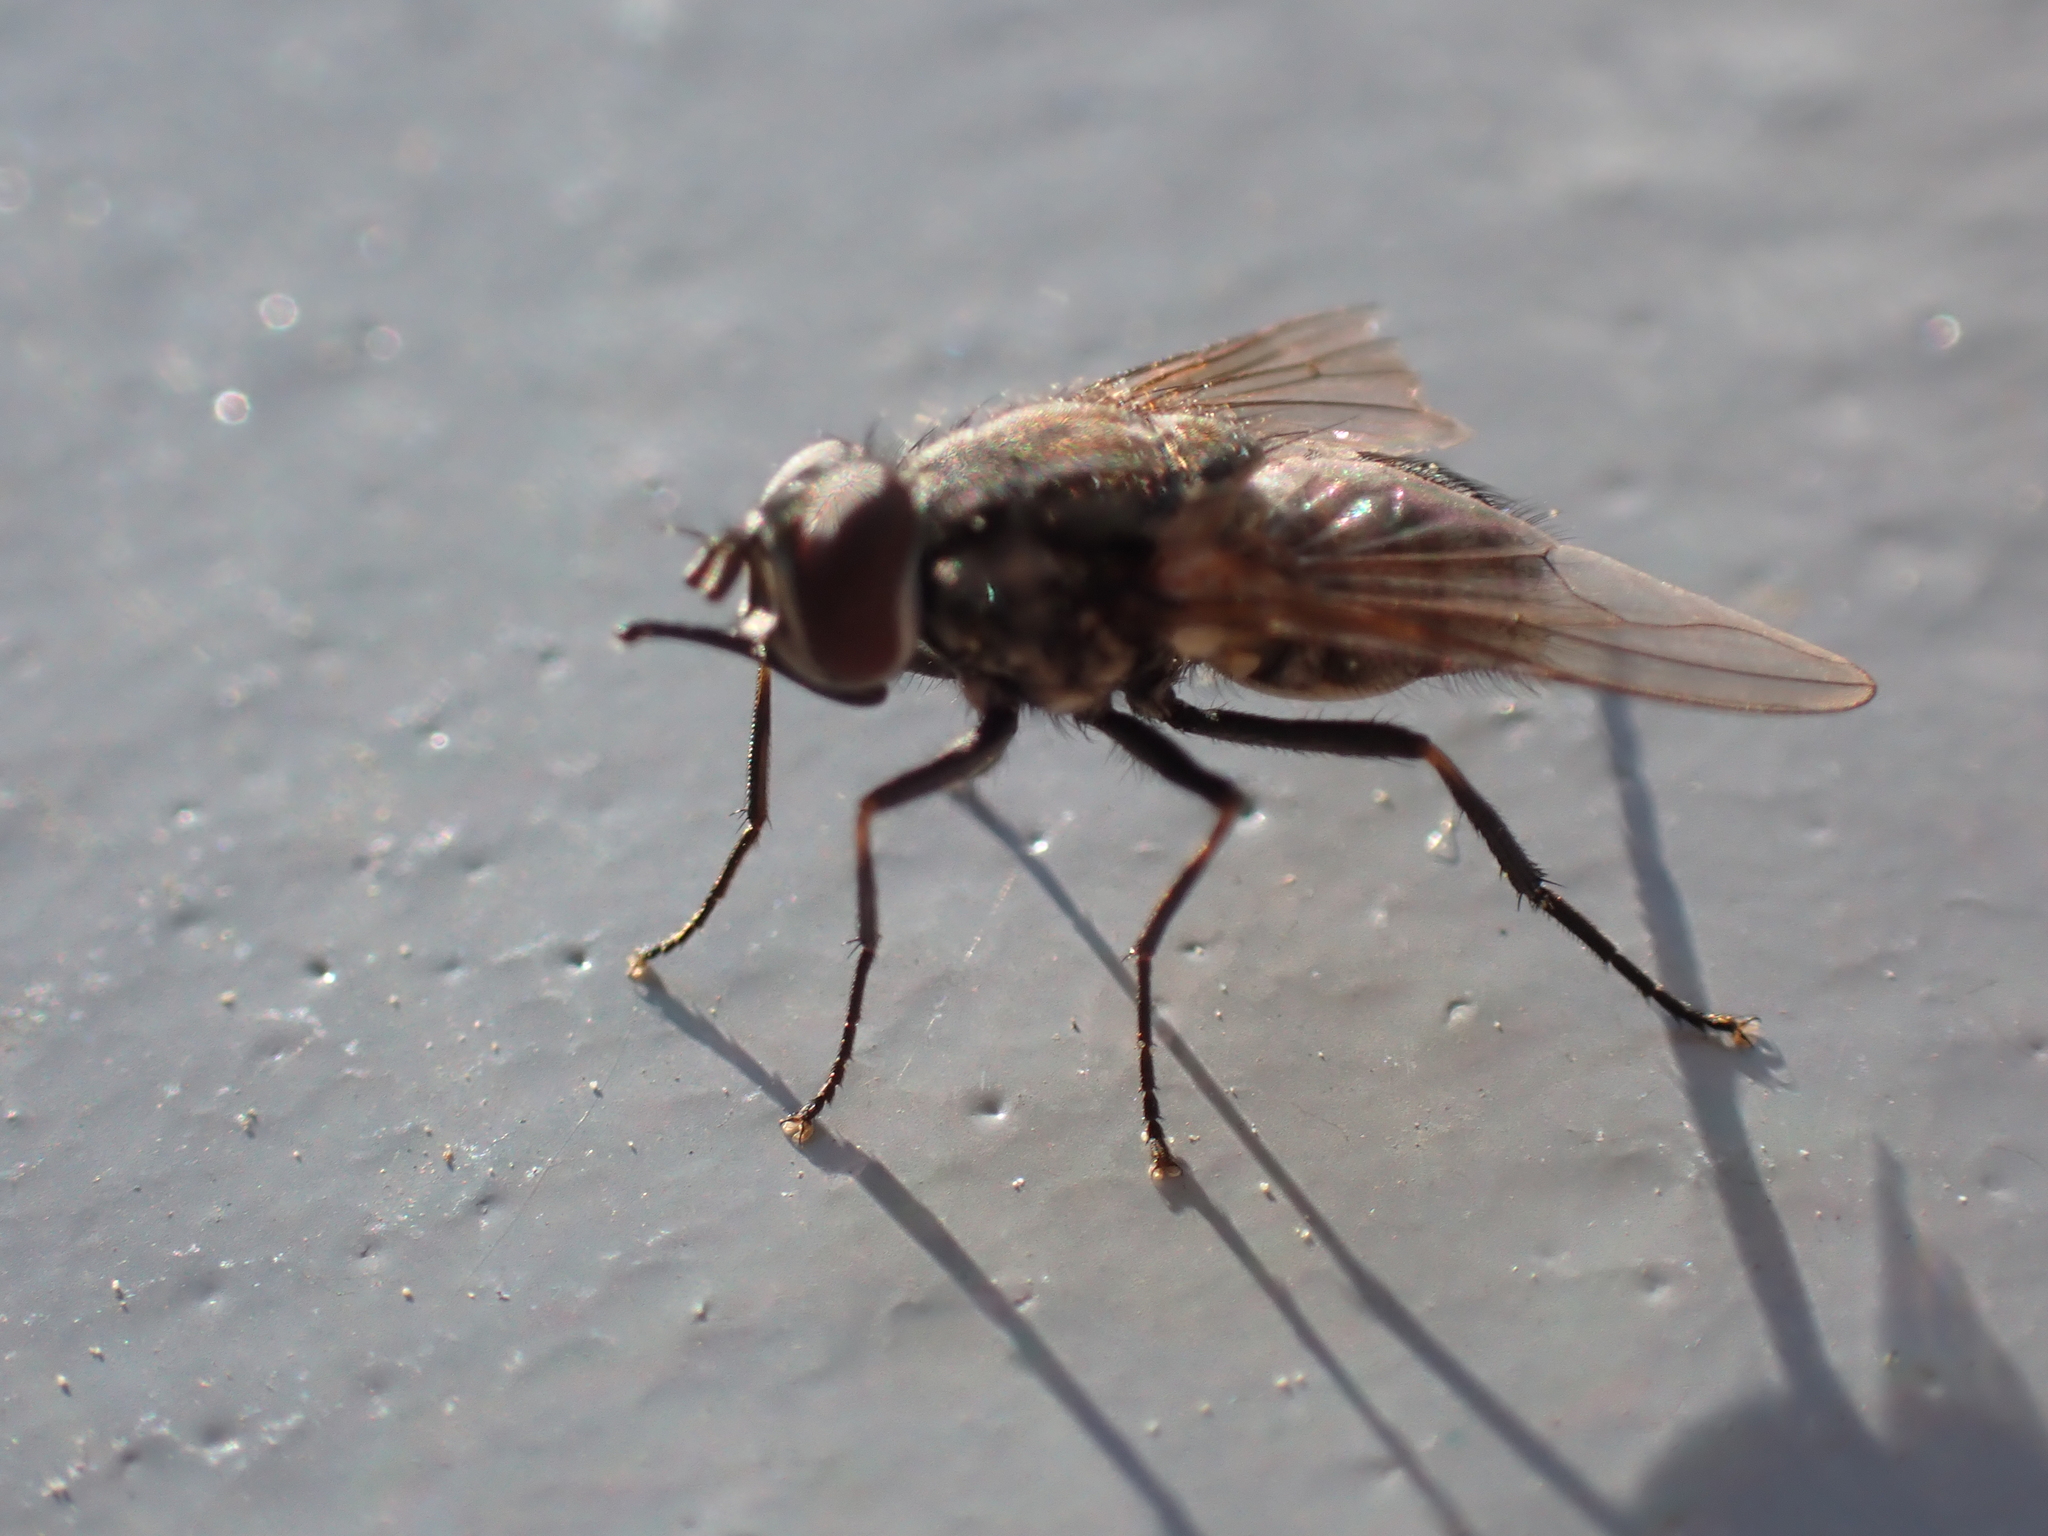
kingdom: Animalia
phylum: Arthropoda
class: Insecta
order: Diptera
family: Muscidae
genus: Stomoxys
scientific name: Stomoxys calcitrans
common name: Stable fly
